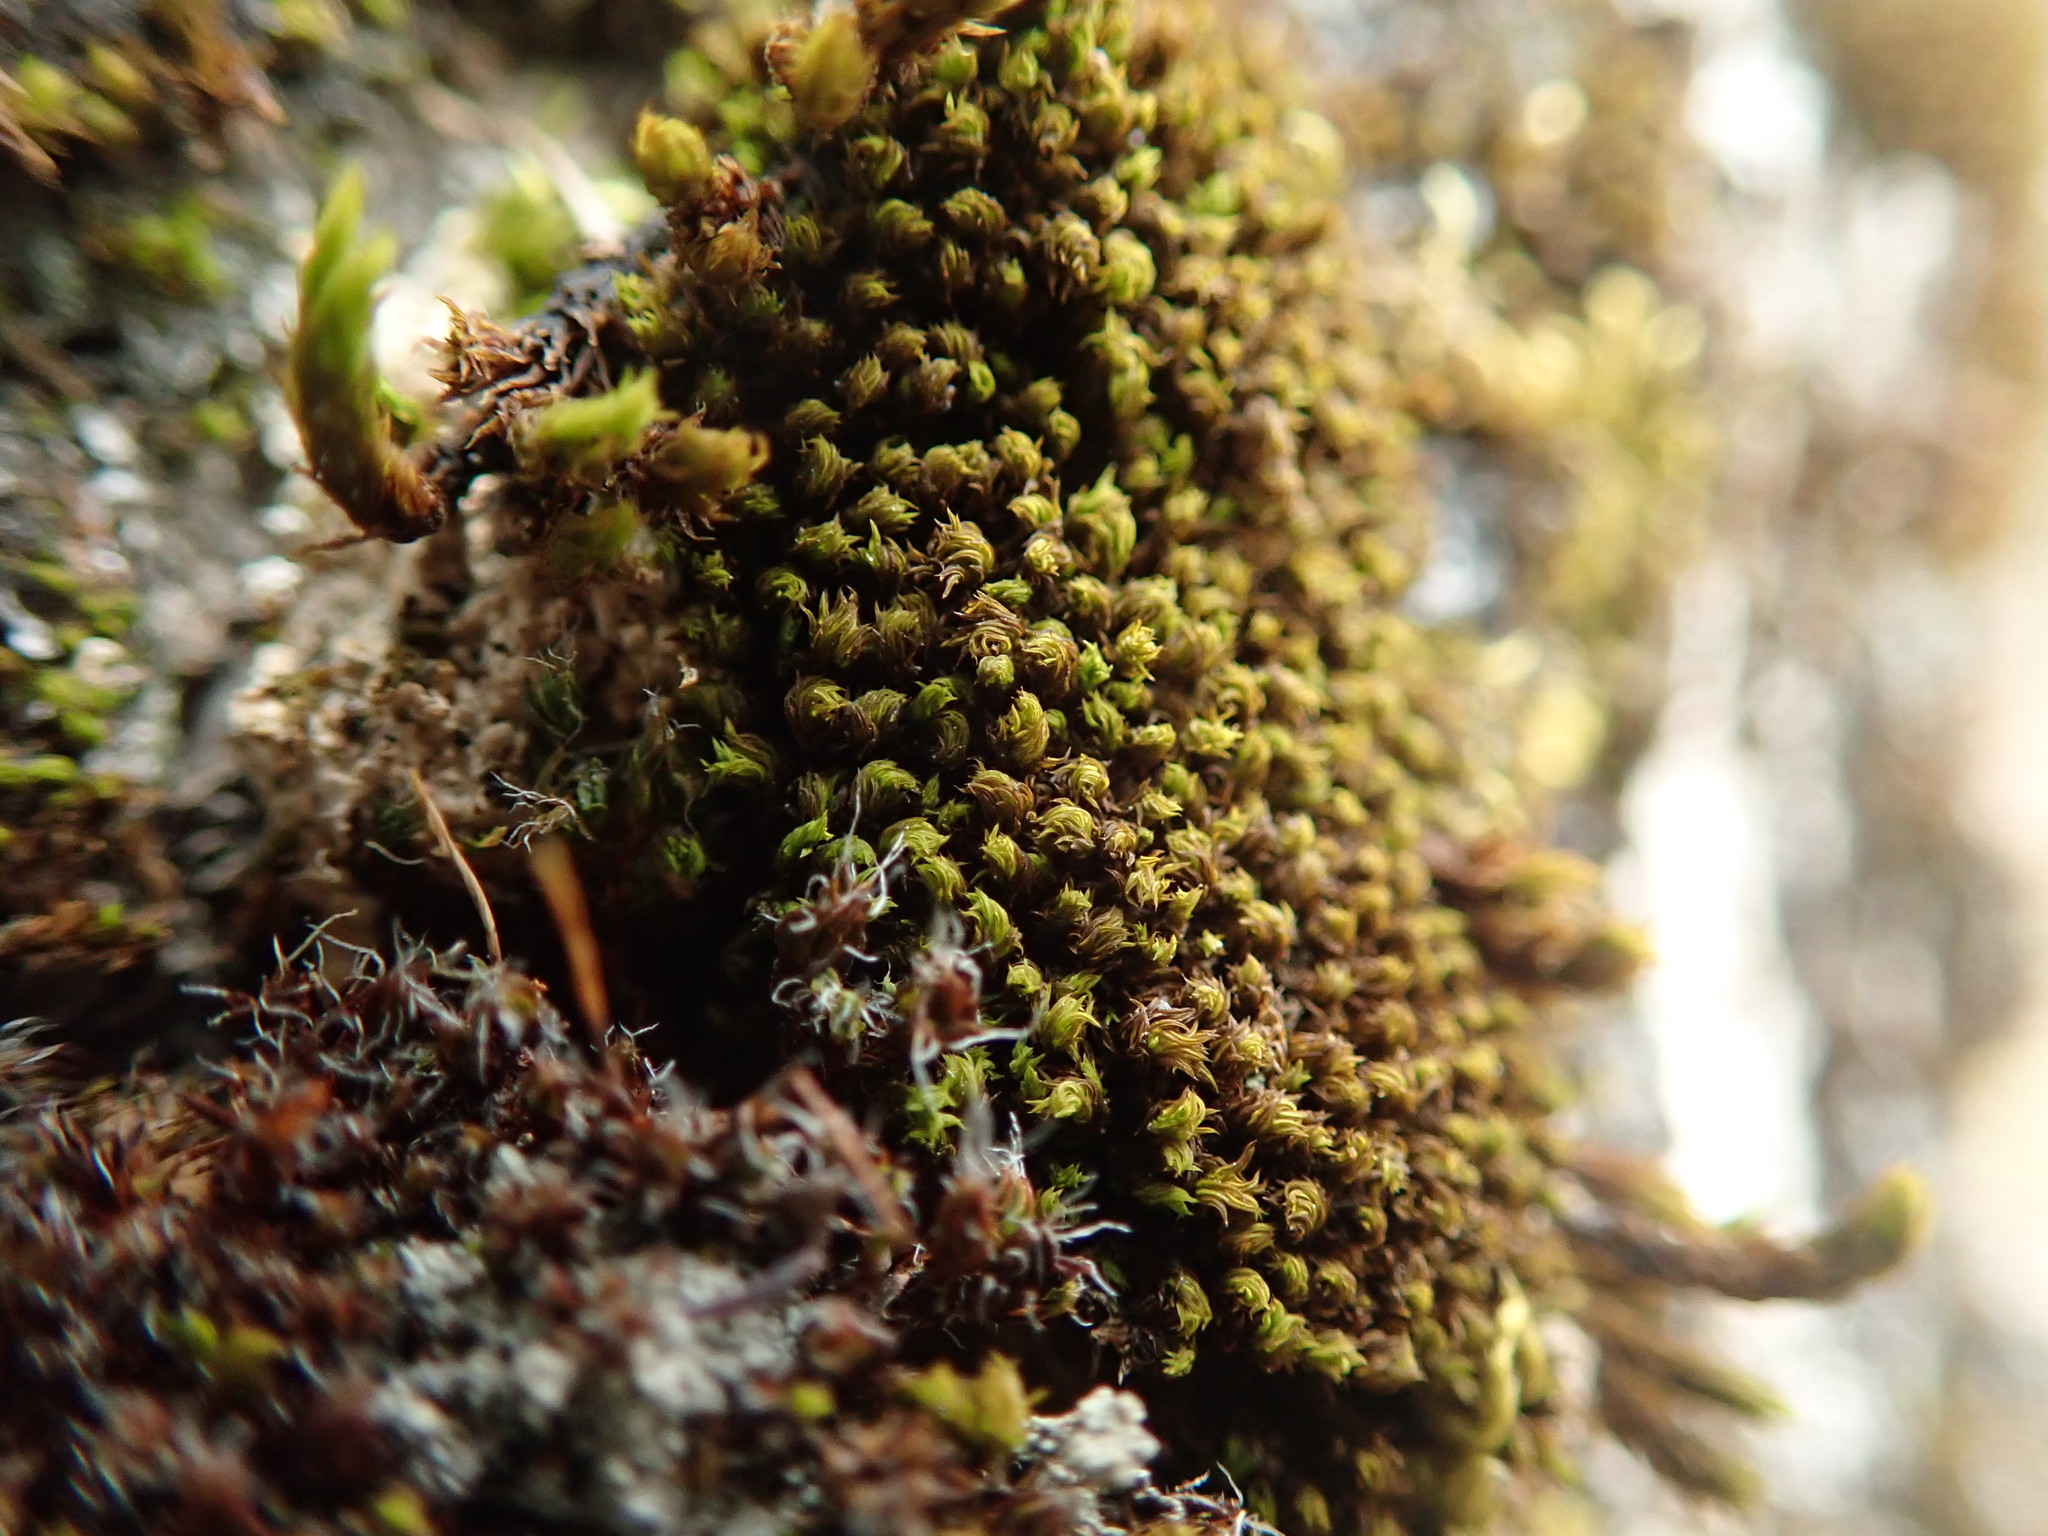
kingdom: Plantae
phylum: Bryophyta
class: Bryopsida
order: Orthotrichales
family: Orthotrichaceae
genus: Zygodon
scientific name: Zygodon rupestris
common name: Park yoke moss
